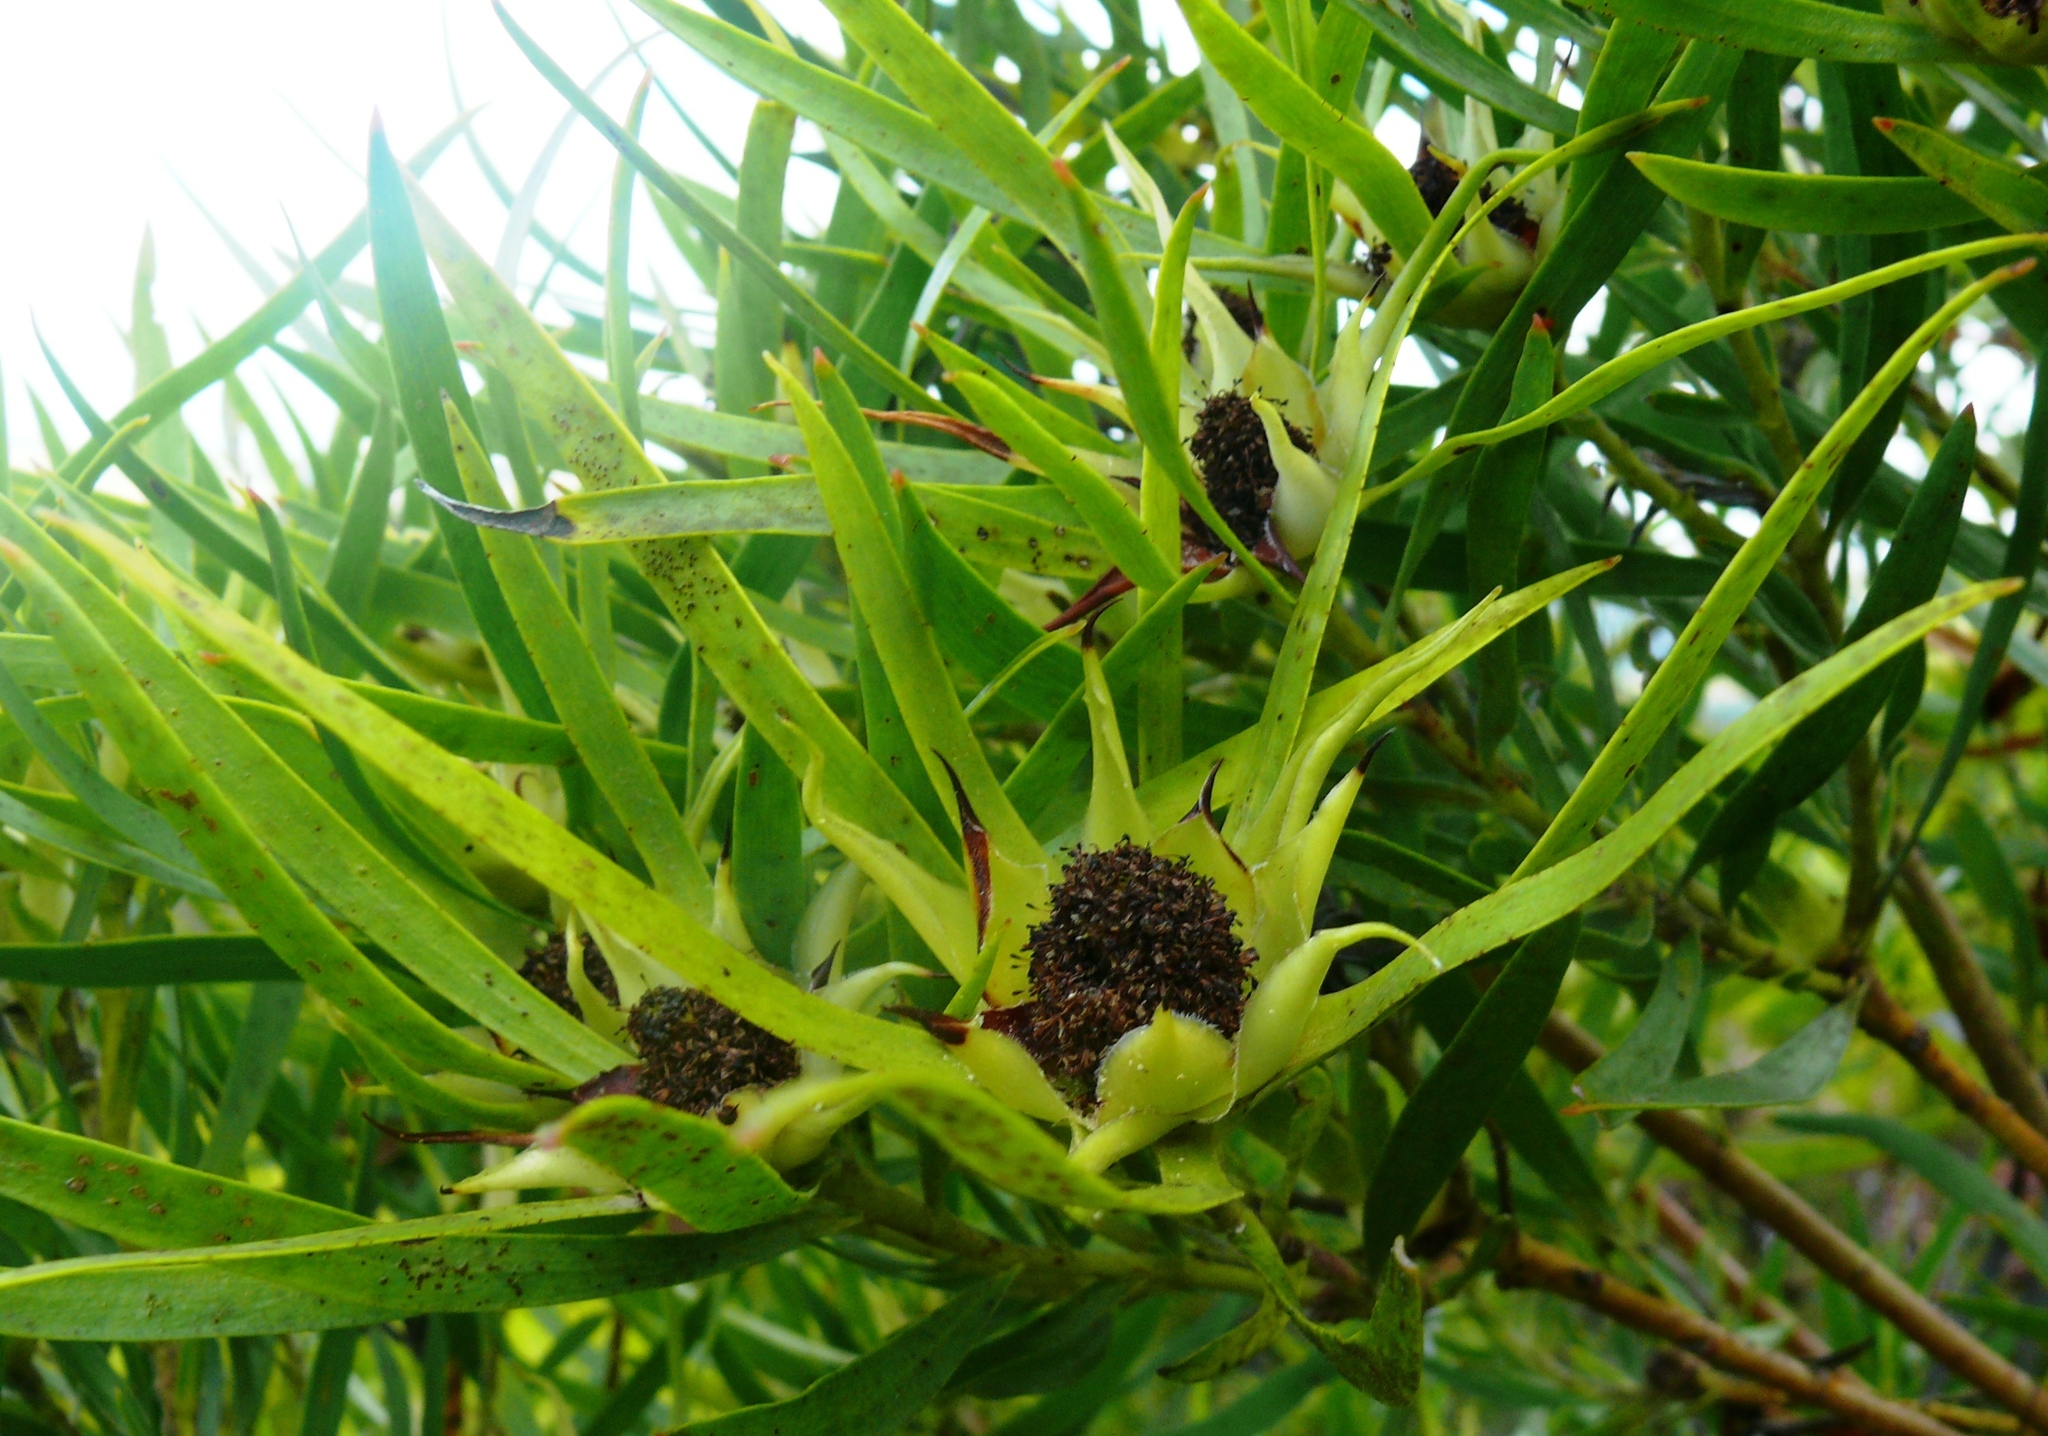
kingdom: Plantae
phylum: Tracheophyta
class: Magnoliopsida
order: Proteales
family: Proteaceae
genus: Leucadendron
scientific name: Leucadendron eucalyptifolium
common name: Gum-leaved conebush
